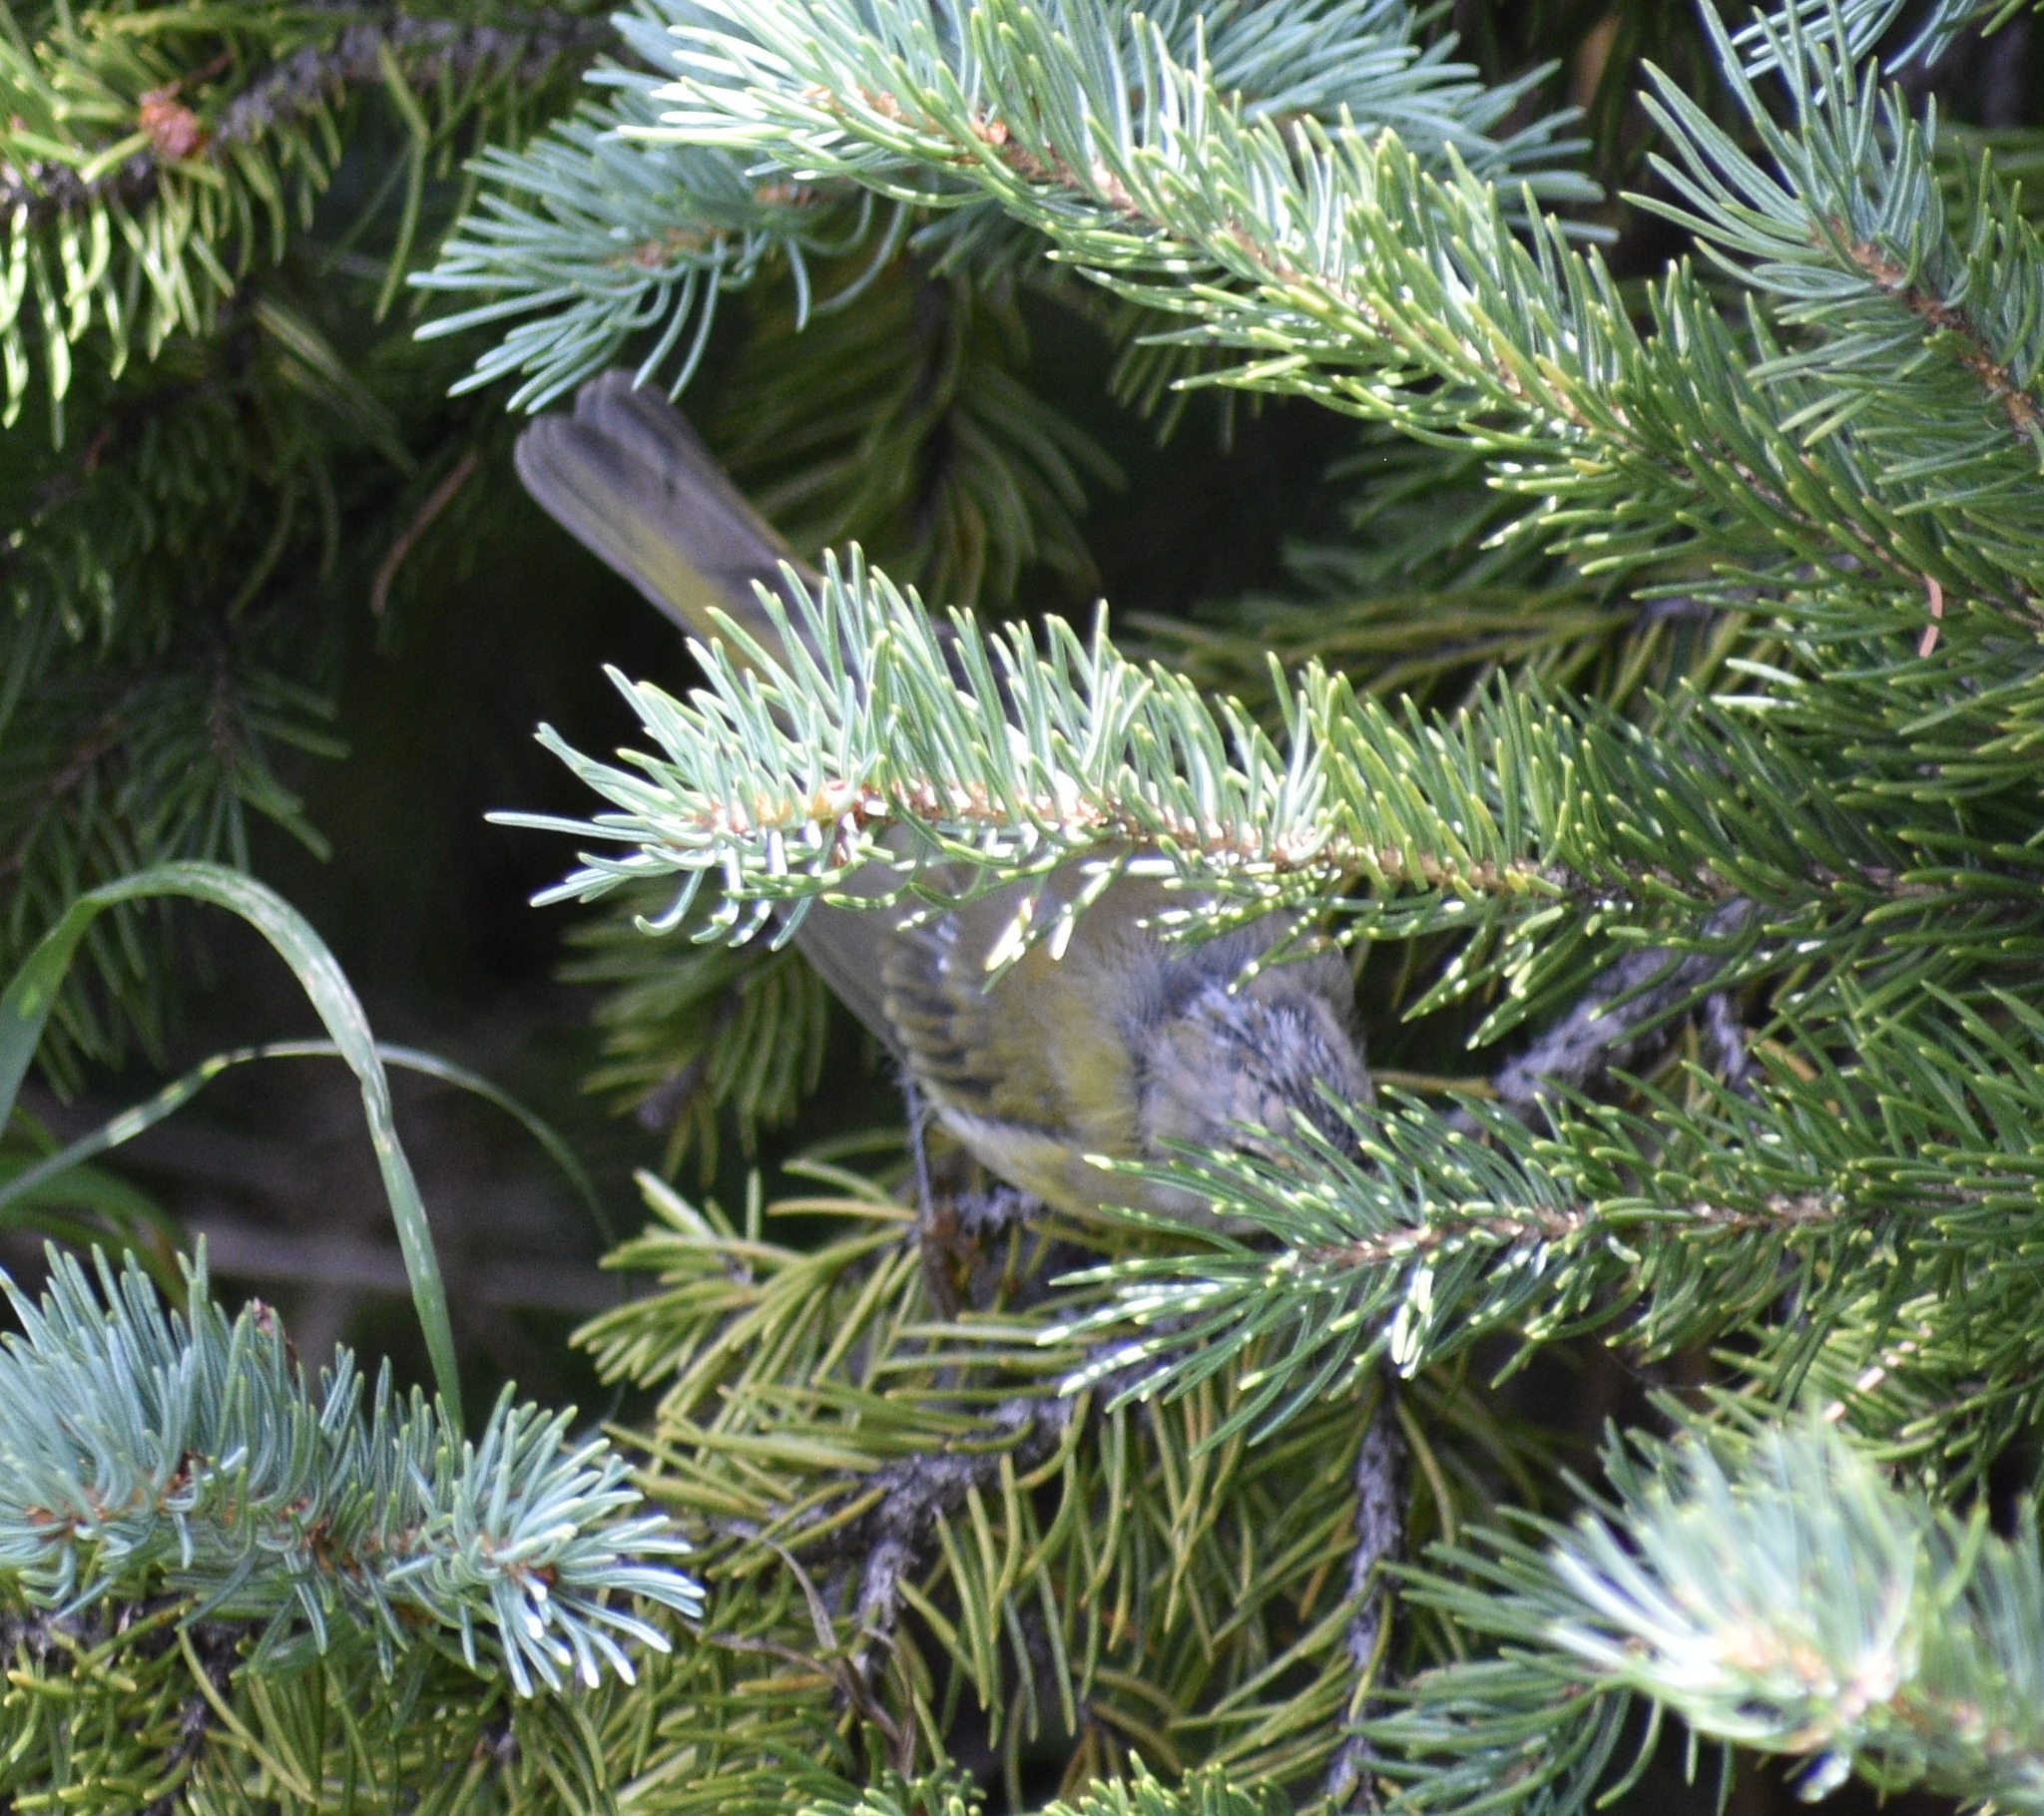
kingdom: Animalia
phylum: Chordata
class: Aves
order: Passeriformes
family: Parulidae
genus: Leiothlypis
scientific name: Leiothlypis celata
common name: Orange-crowned warbler
